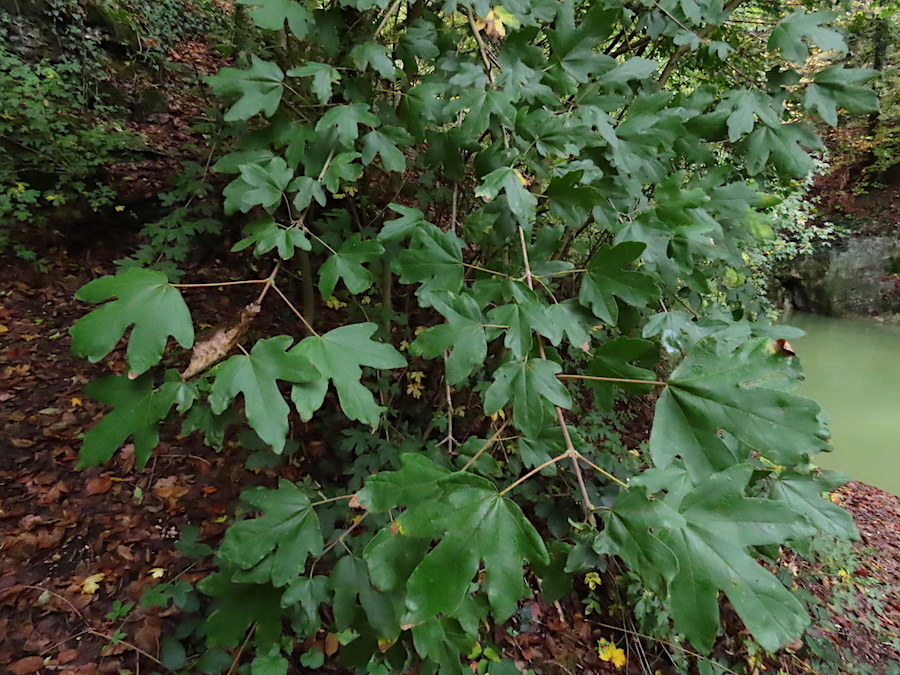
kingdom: Plantae
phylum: Tracheophyta
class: Magnoliopsida
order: Sapindales
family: Sapindaceae
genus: Acer
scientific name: Acer campestre
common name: Field maple
